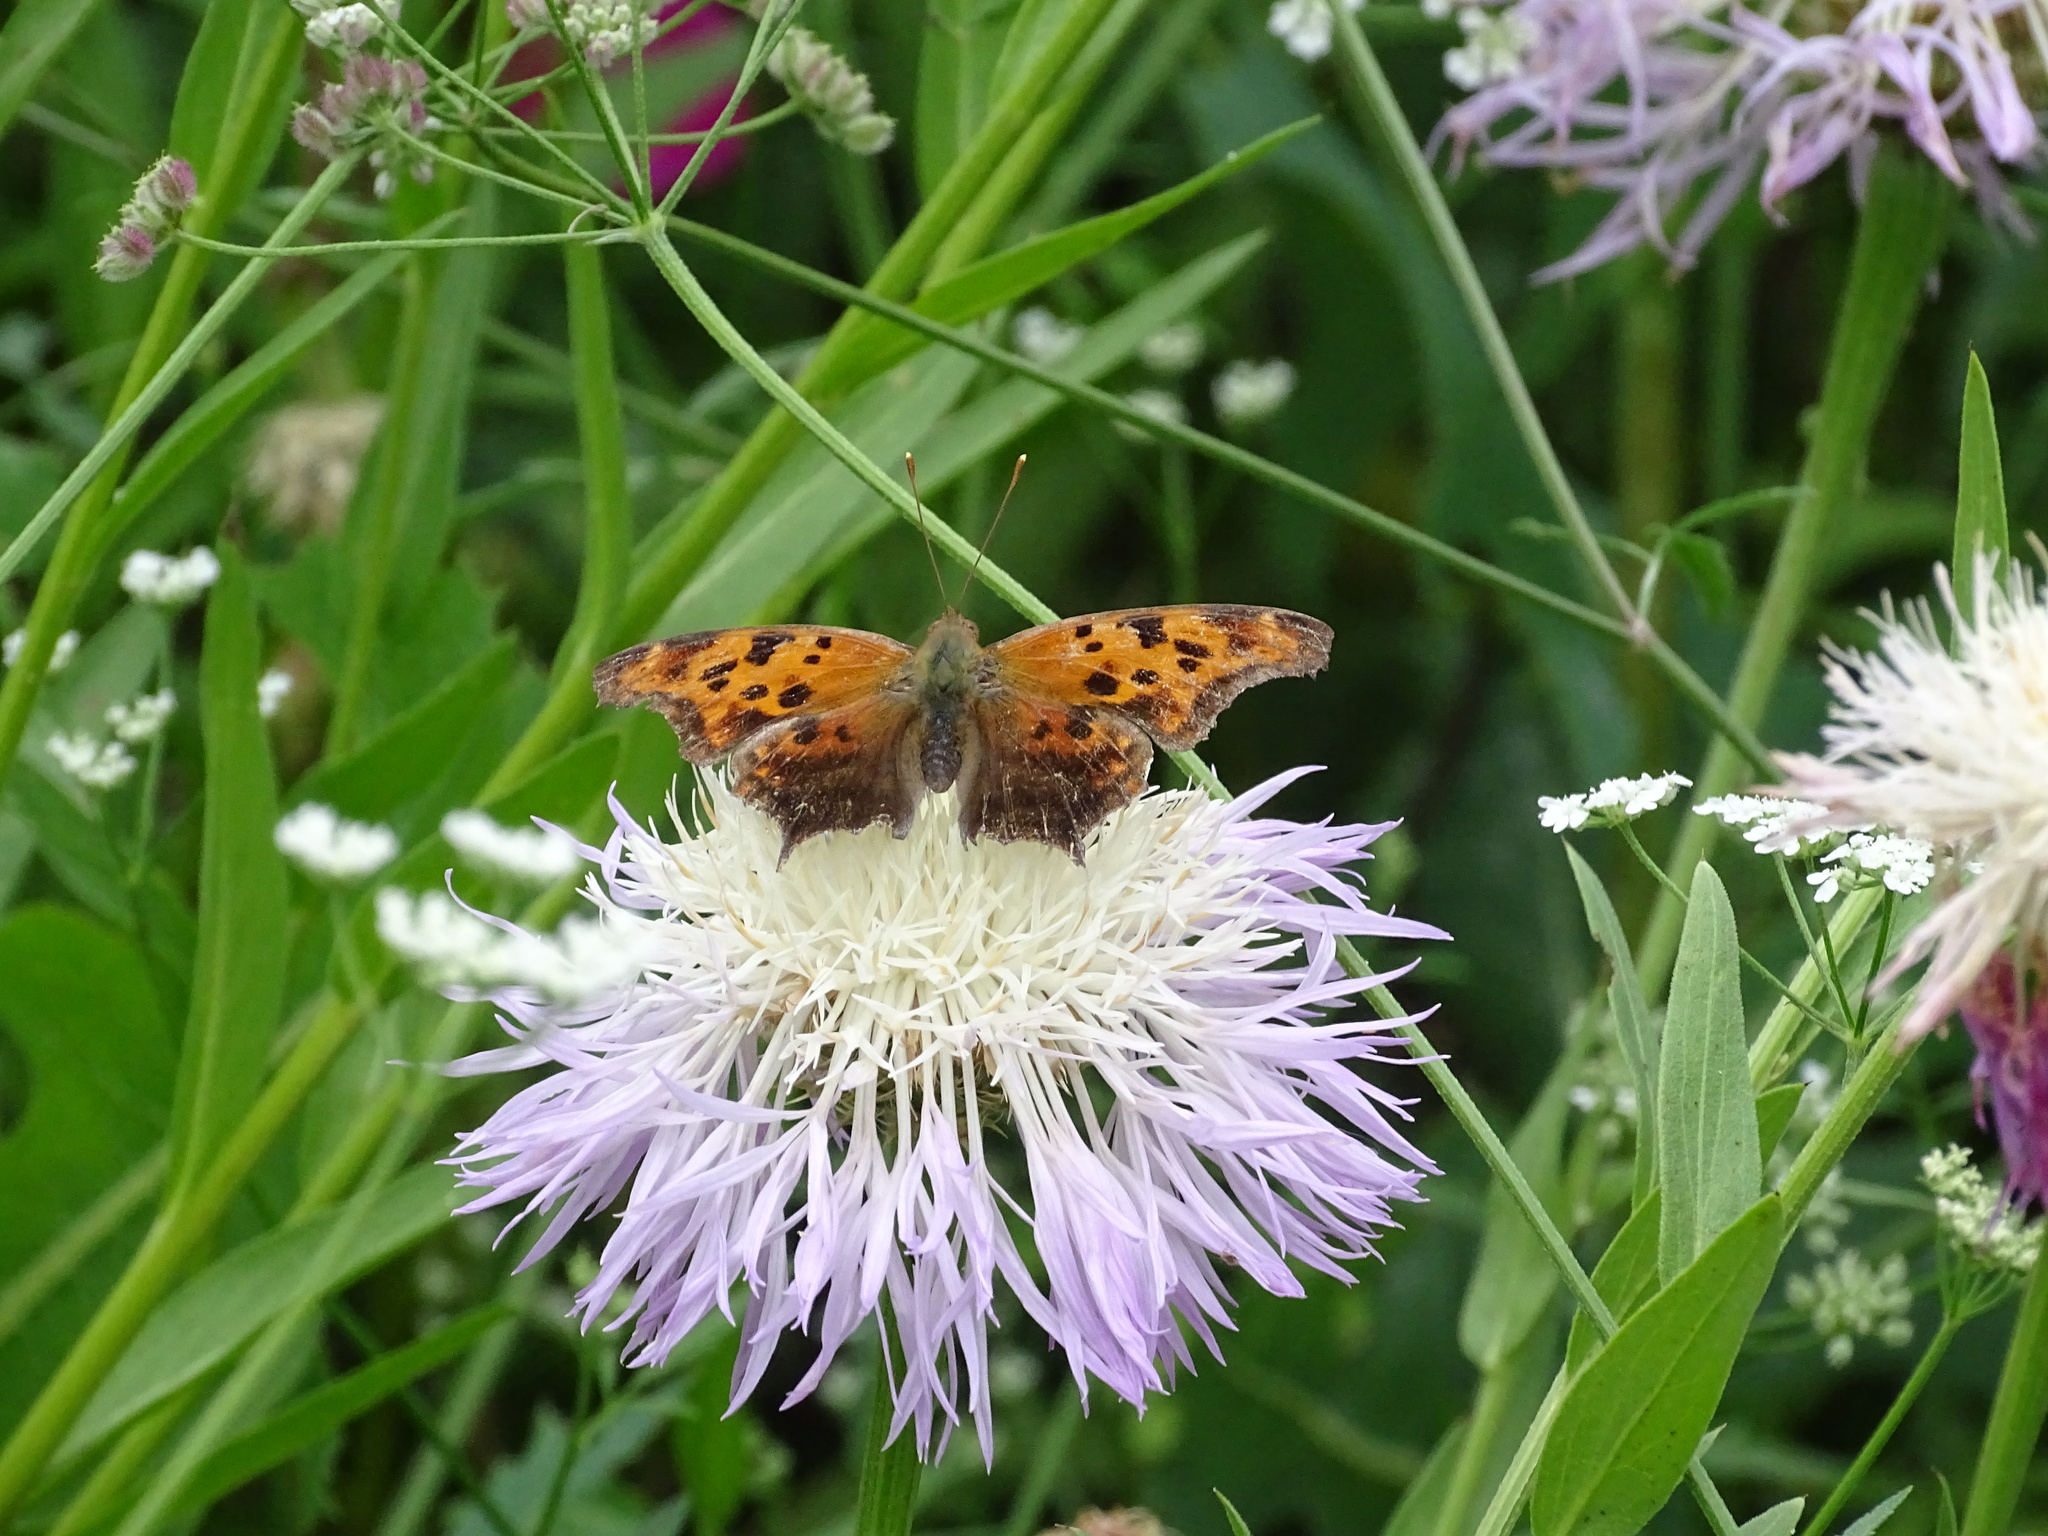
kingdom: Animalia
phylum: Arthropoda
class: Insecta
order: Lepidoptera
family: Nymphalidae
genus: Polygonia
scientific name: Polygonia interrogationis
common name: Question mark
